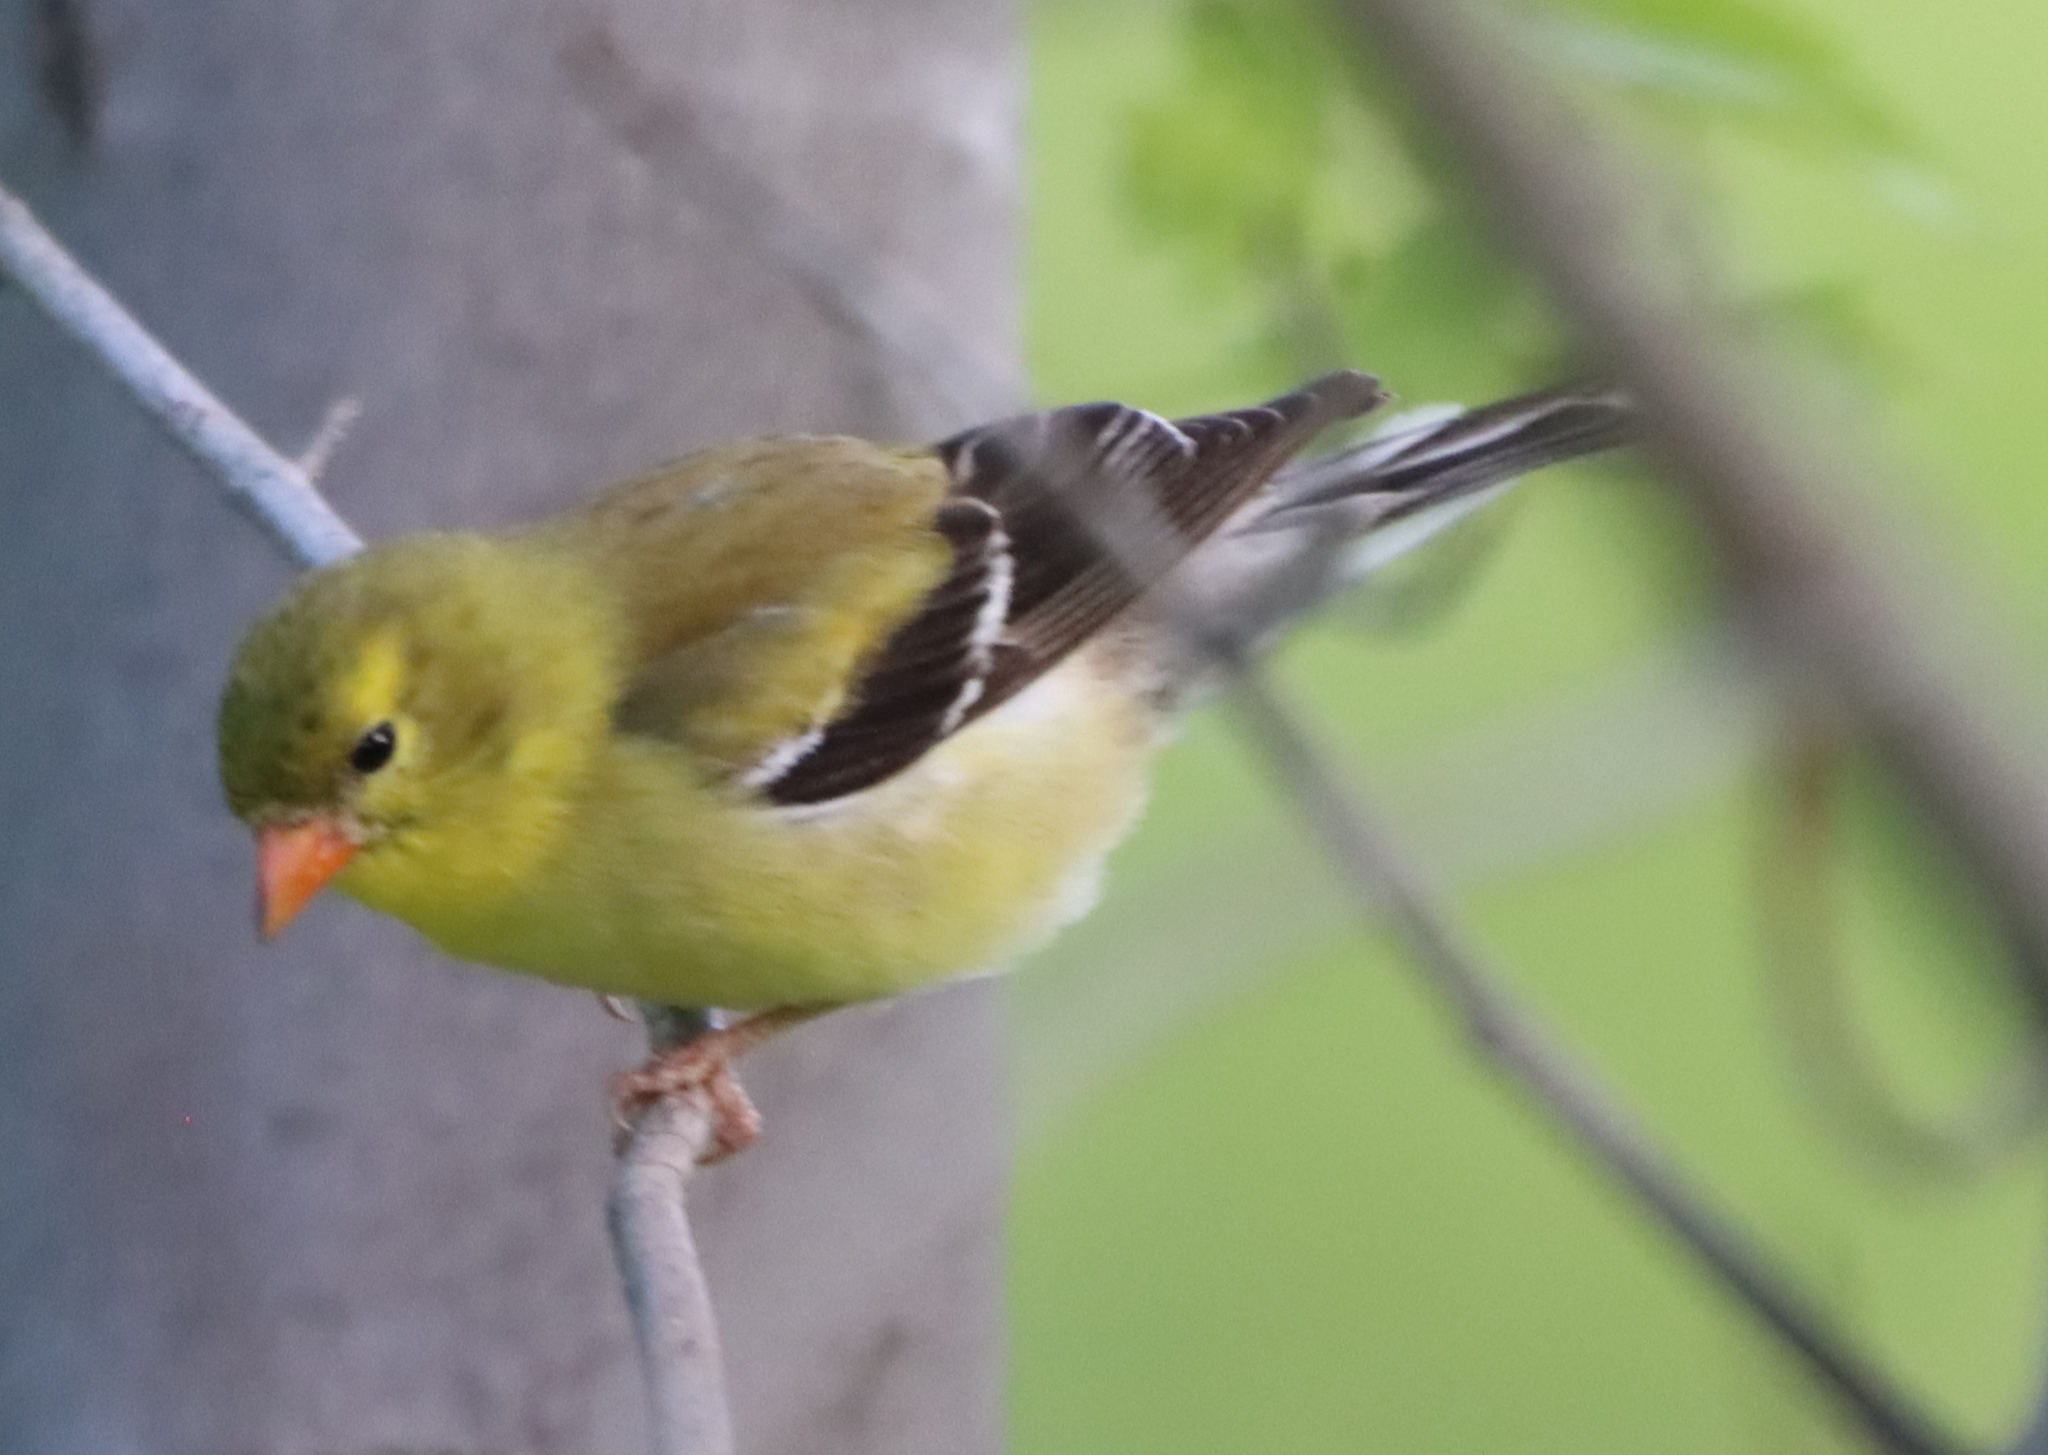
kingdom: Animalia
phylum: Chordata
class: Aves
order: Passeriformes
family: Fringillidae
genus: Spinus
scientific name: Spinus tristis
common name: American goldfinch
